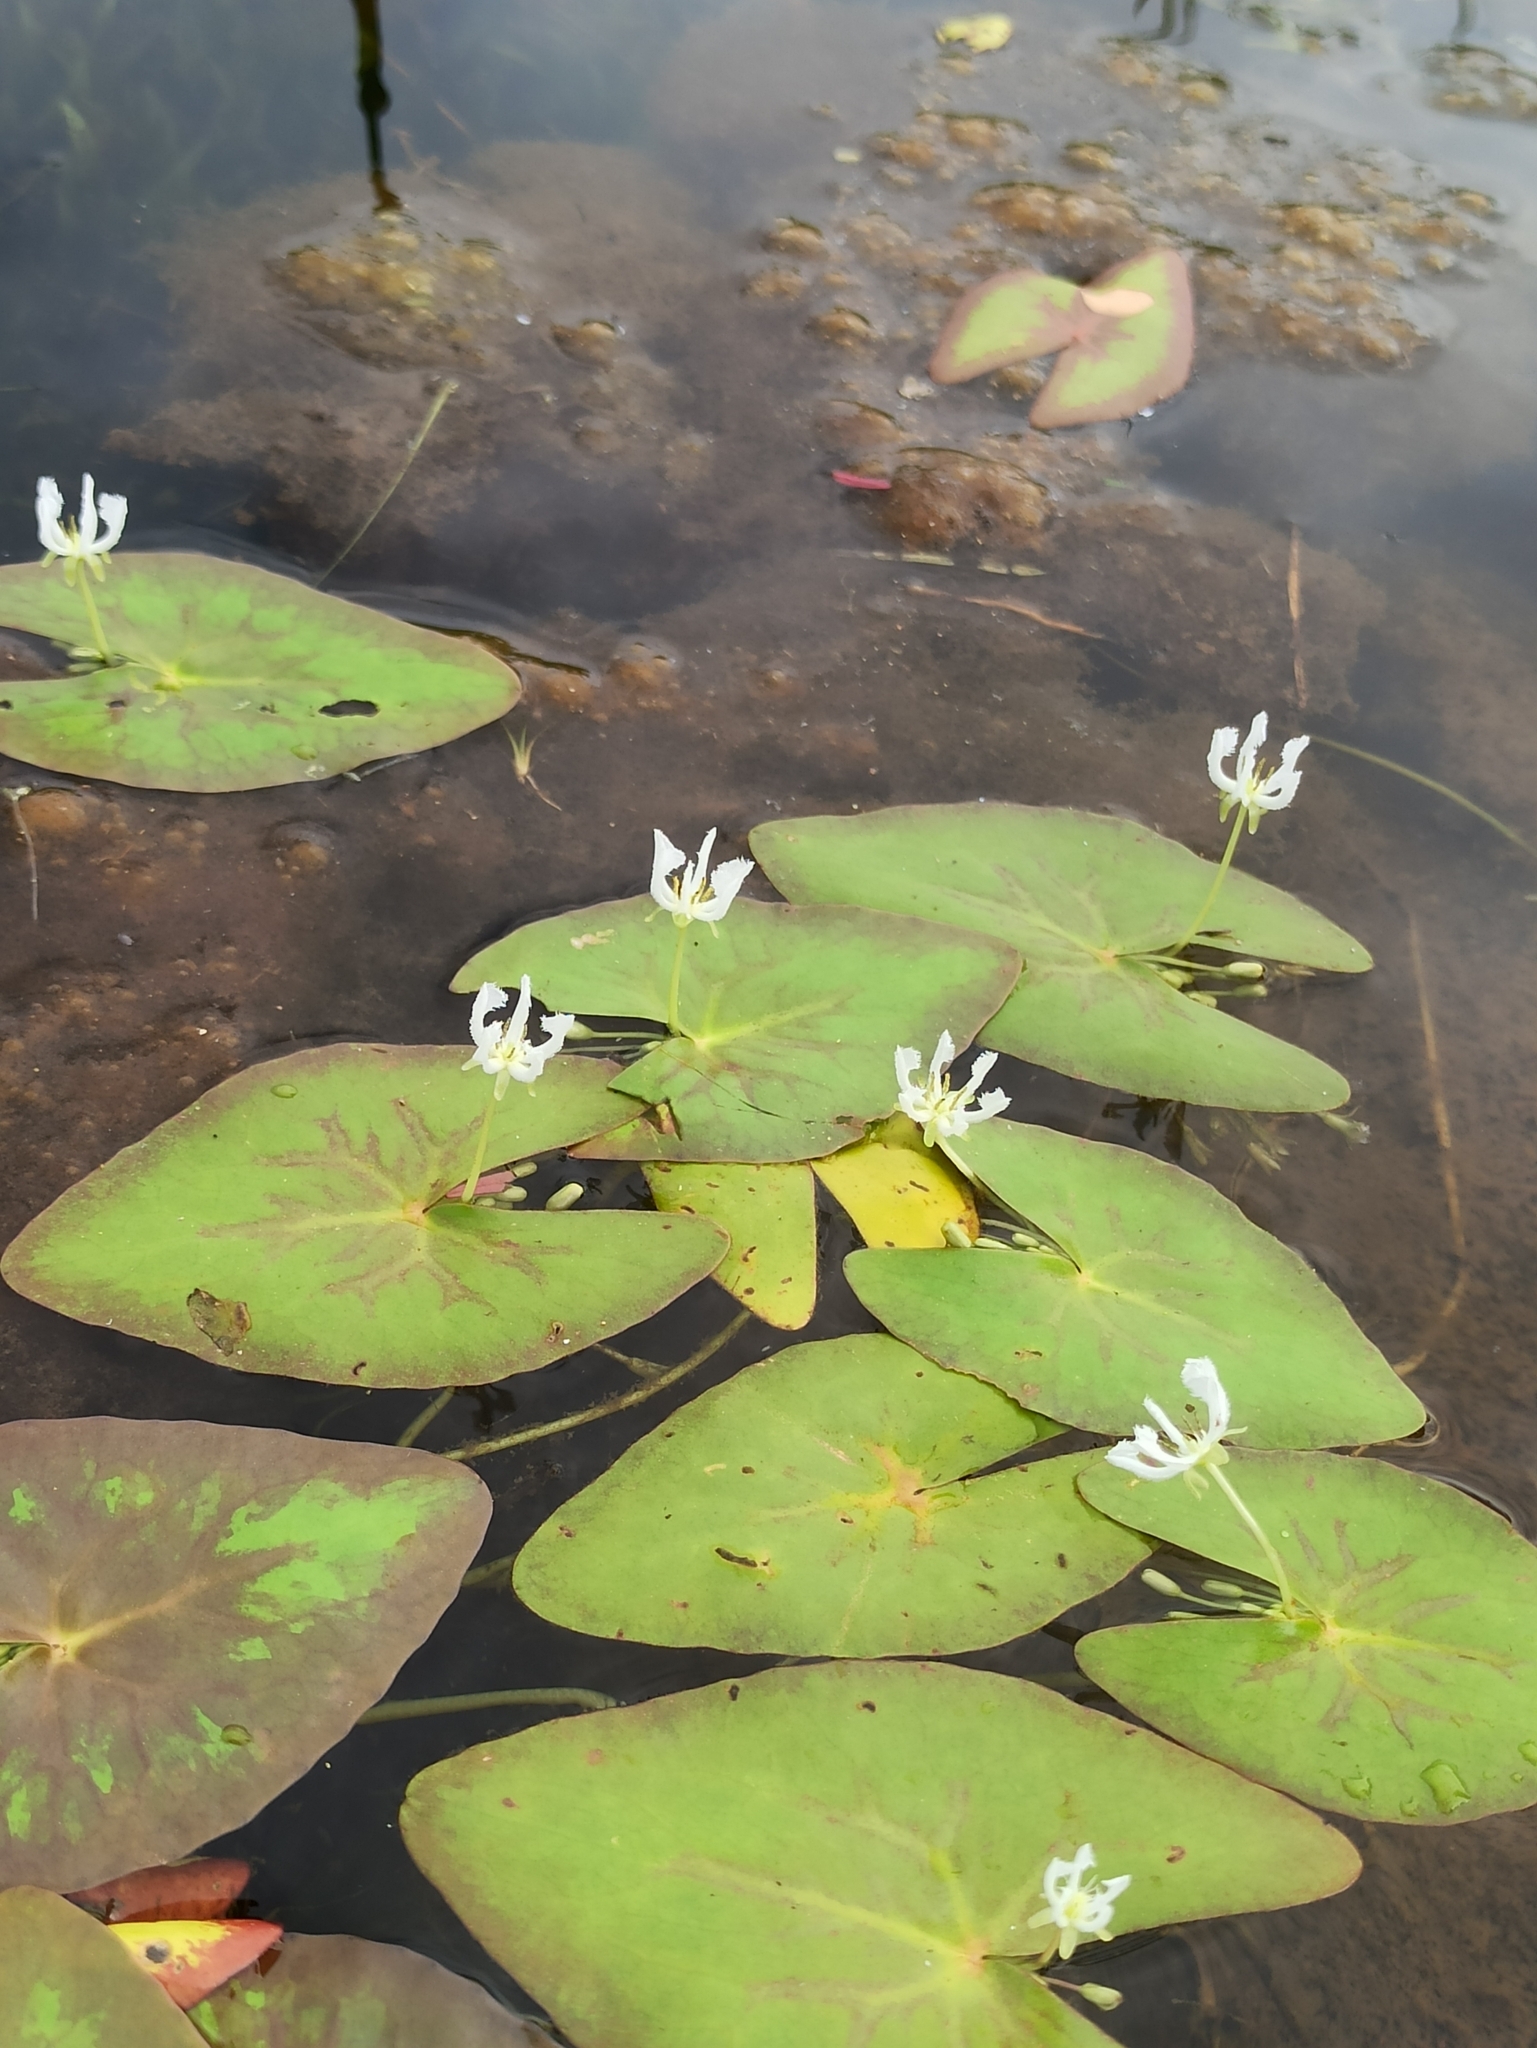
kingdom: Plantae
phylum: Tracheophyta
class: Magnoliopsida
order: Asterales
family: Menyanthaceae
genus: Nymphoides
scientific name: Nymphoides indica
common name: Water-snowflake
